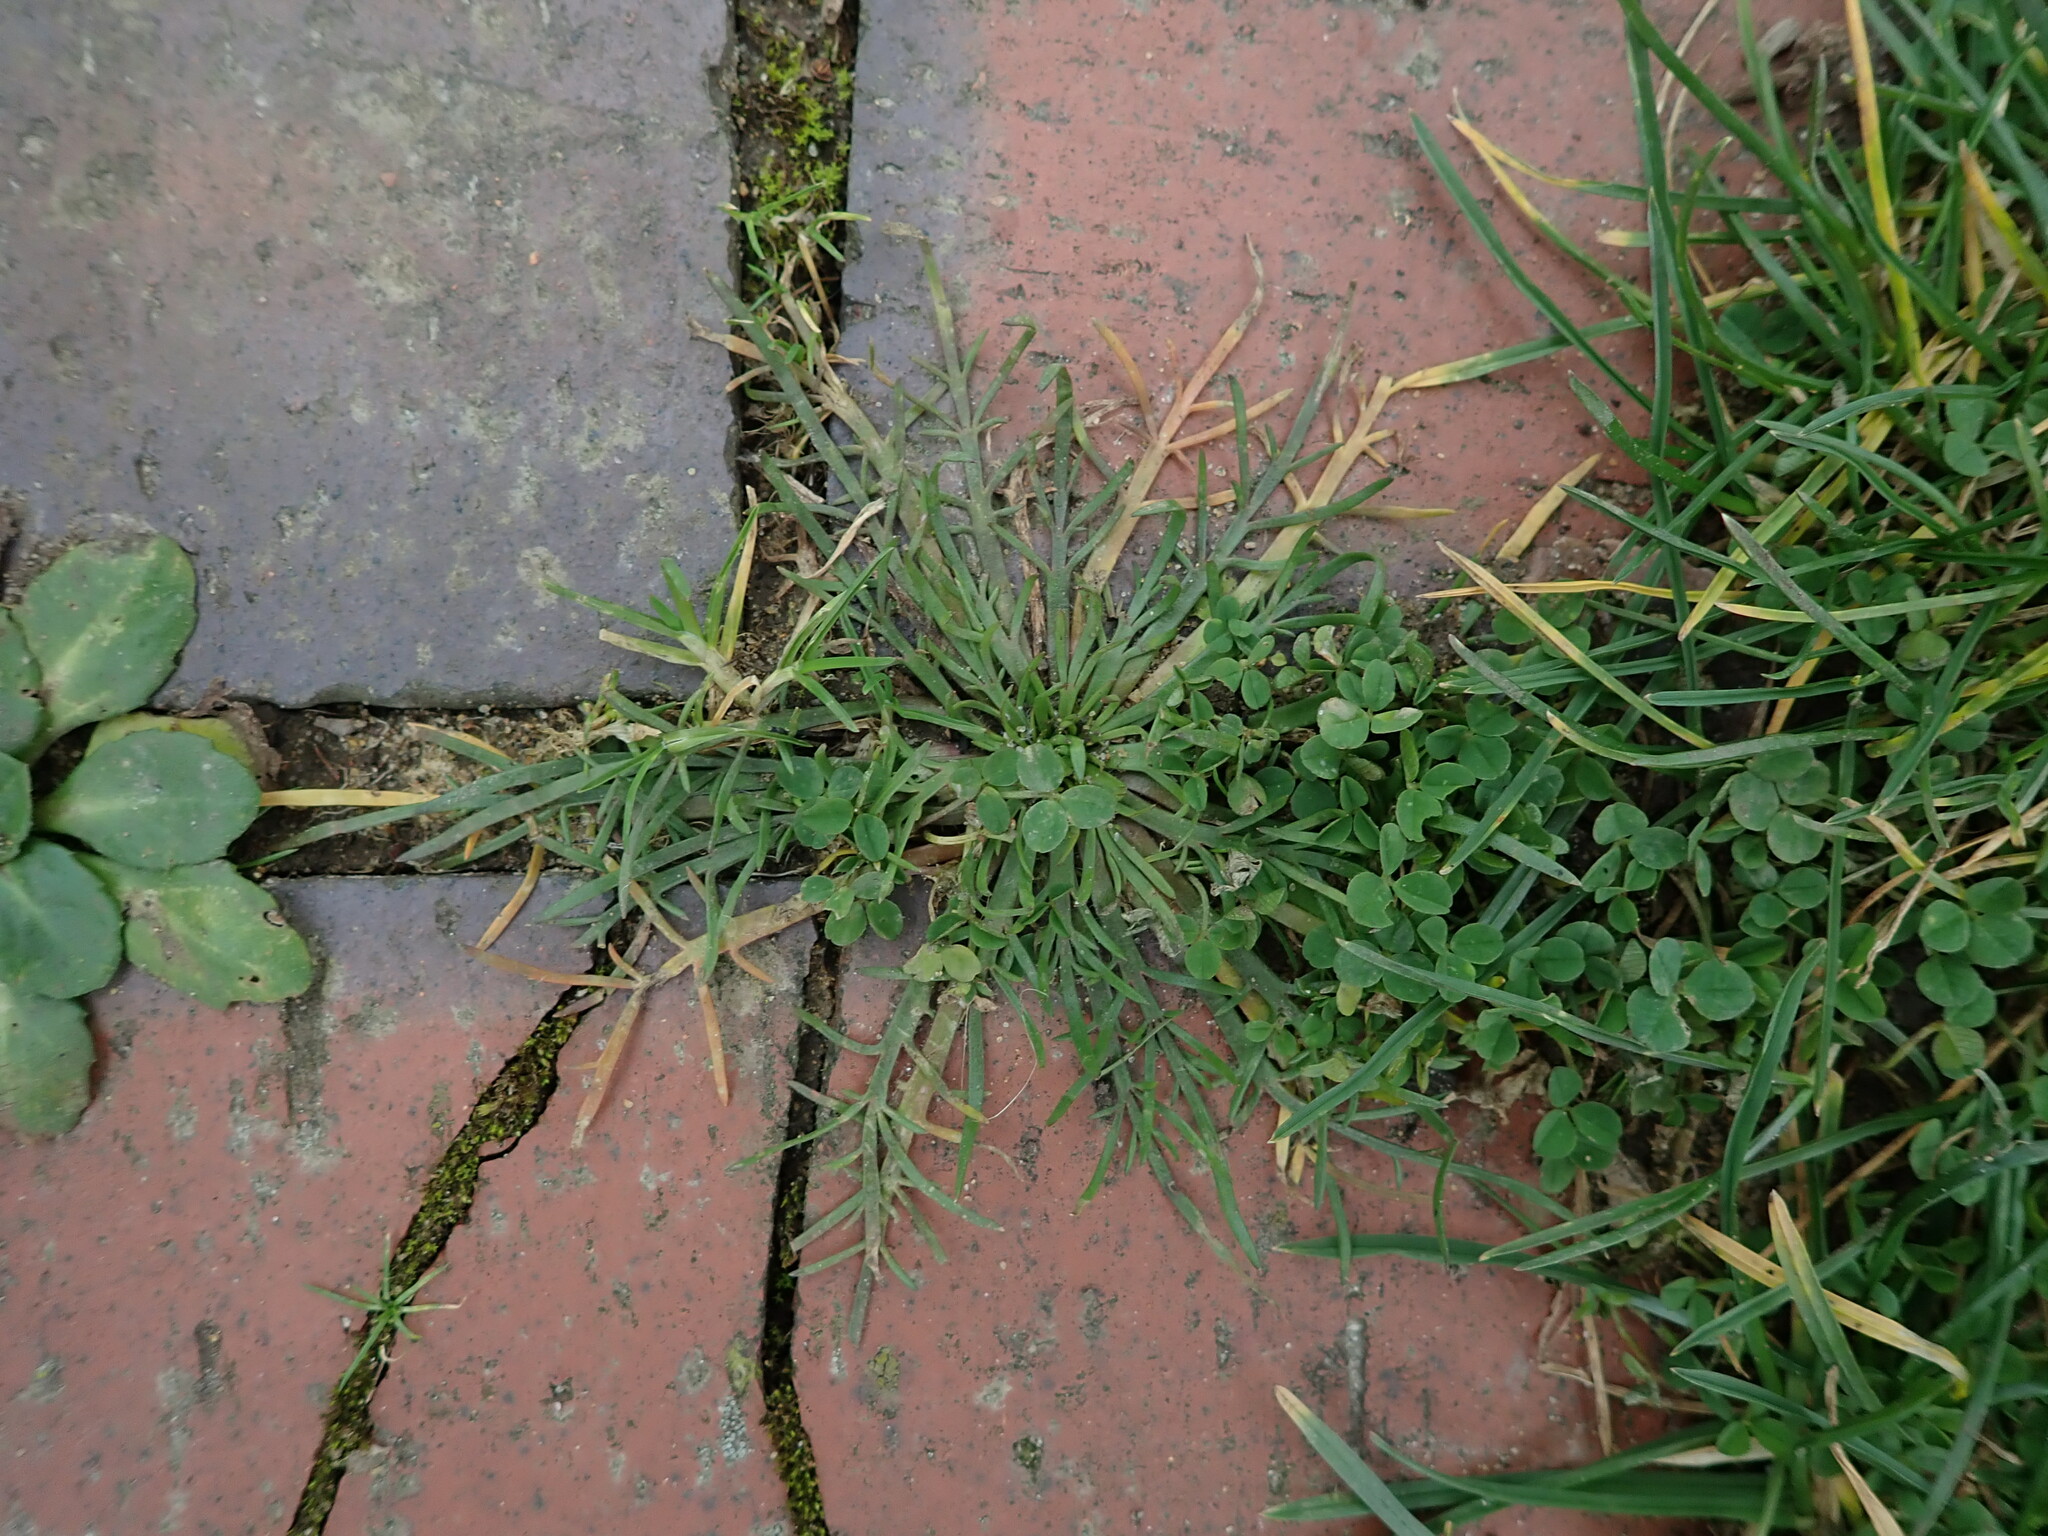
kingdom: Plantae
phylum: Tracheophyta
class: Magnoliopsida
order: Lamiales
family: Plantaginaceae
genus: Plantago
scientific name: Plantago coronopus
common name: Buck's-horn plantain
